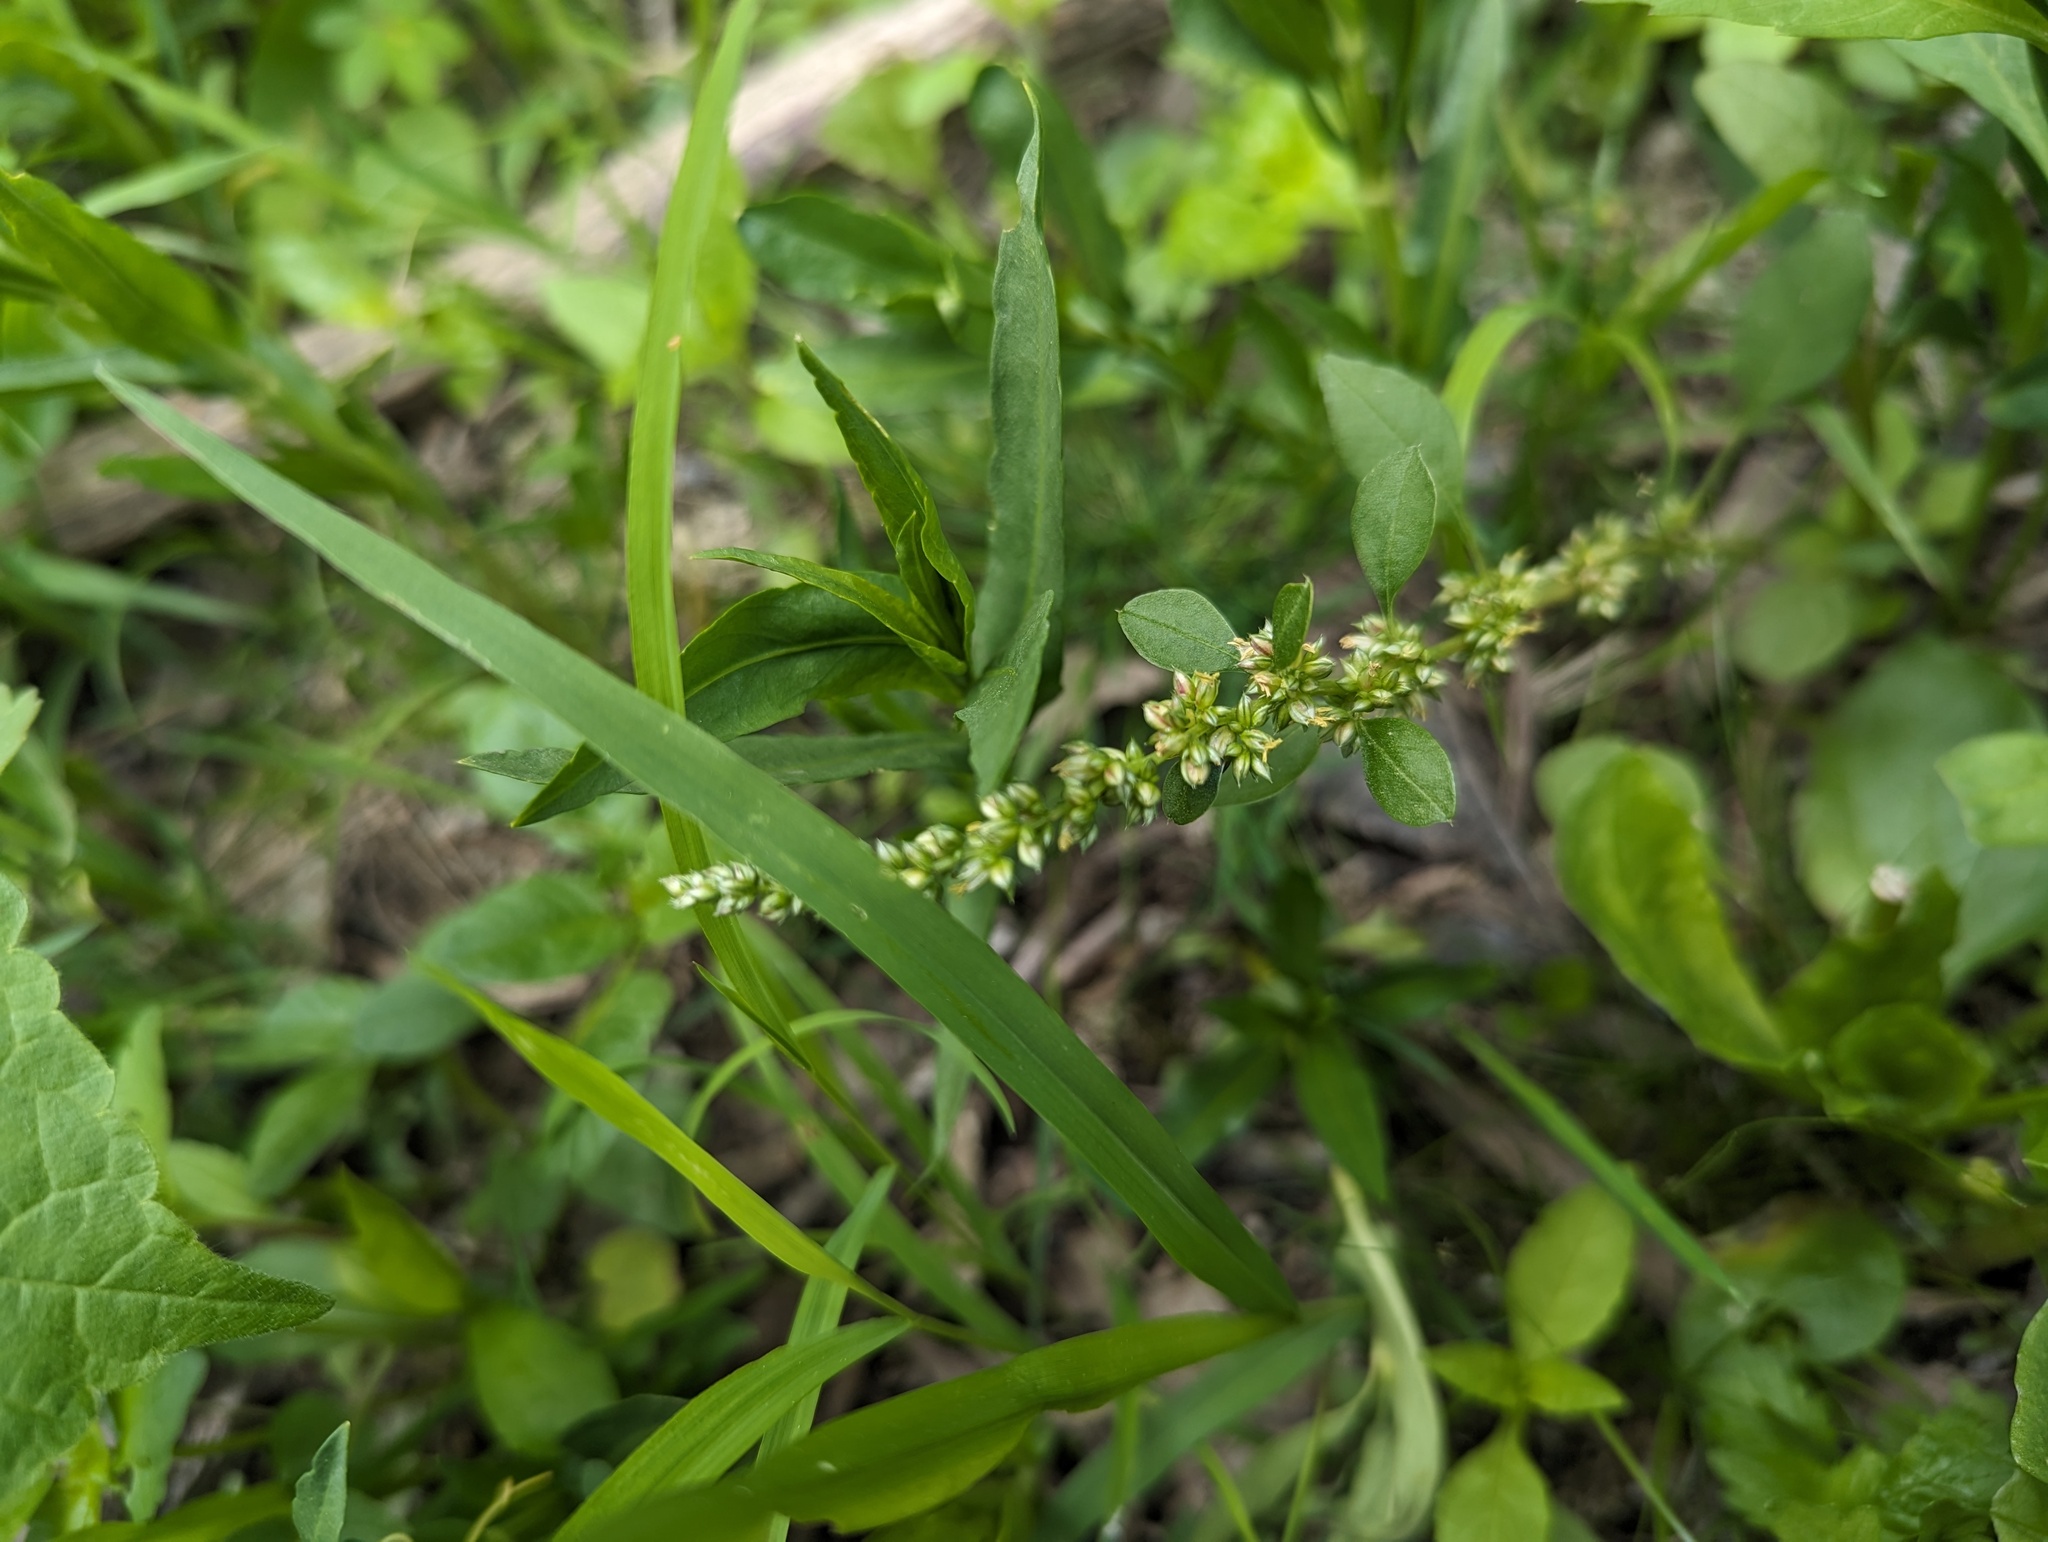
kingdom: Plantae
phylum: Tracheophyta
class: Magnoliopsida
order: Caryophyllales
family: Amaranthaceae
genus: Amaranthus
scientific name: Amaranthus tuberculatus
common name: Rough-fruit amaranth
